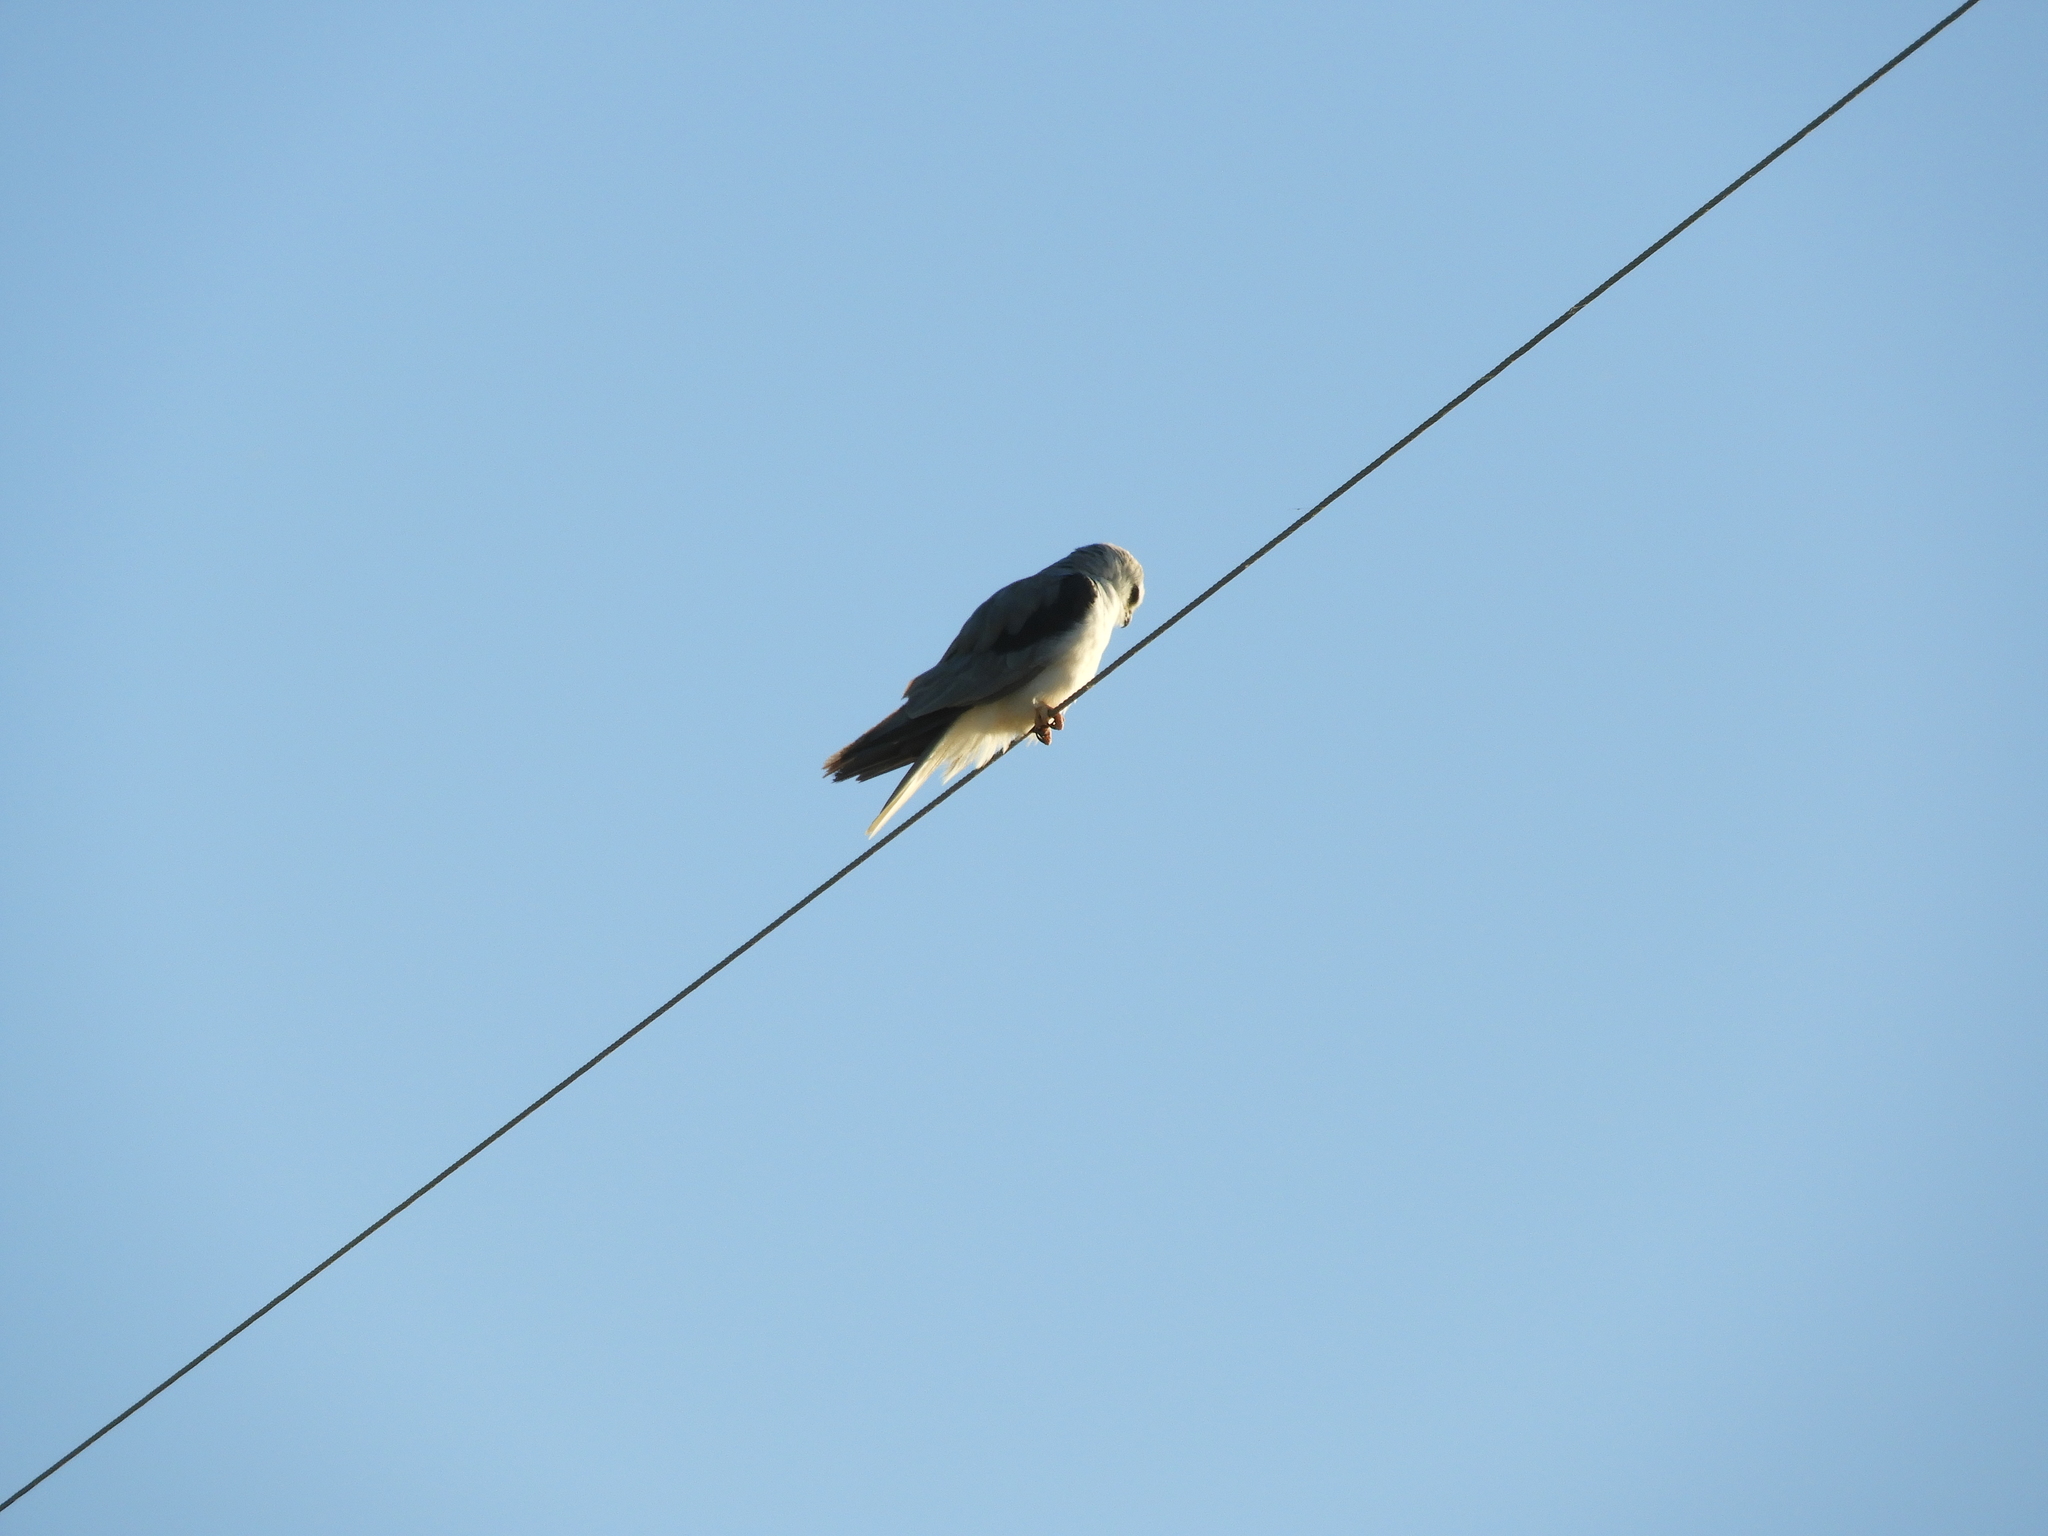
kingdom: Animalia
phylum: Chordata
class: Aves
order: Accipitriformes
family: Accipitridae
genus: Elanus
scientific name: Elanus leucurus
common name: White-tailed kite
